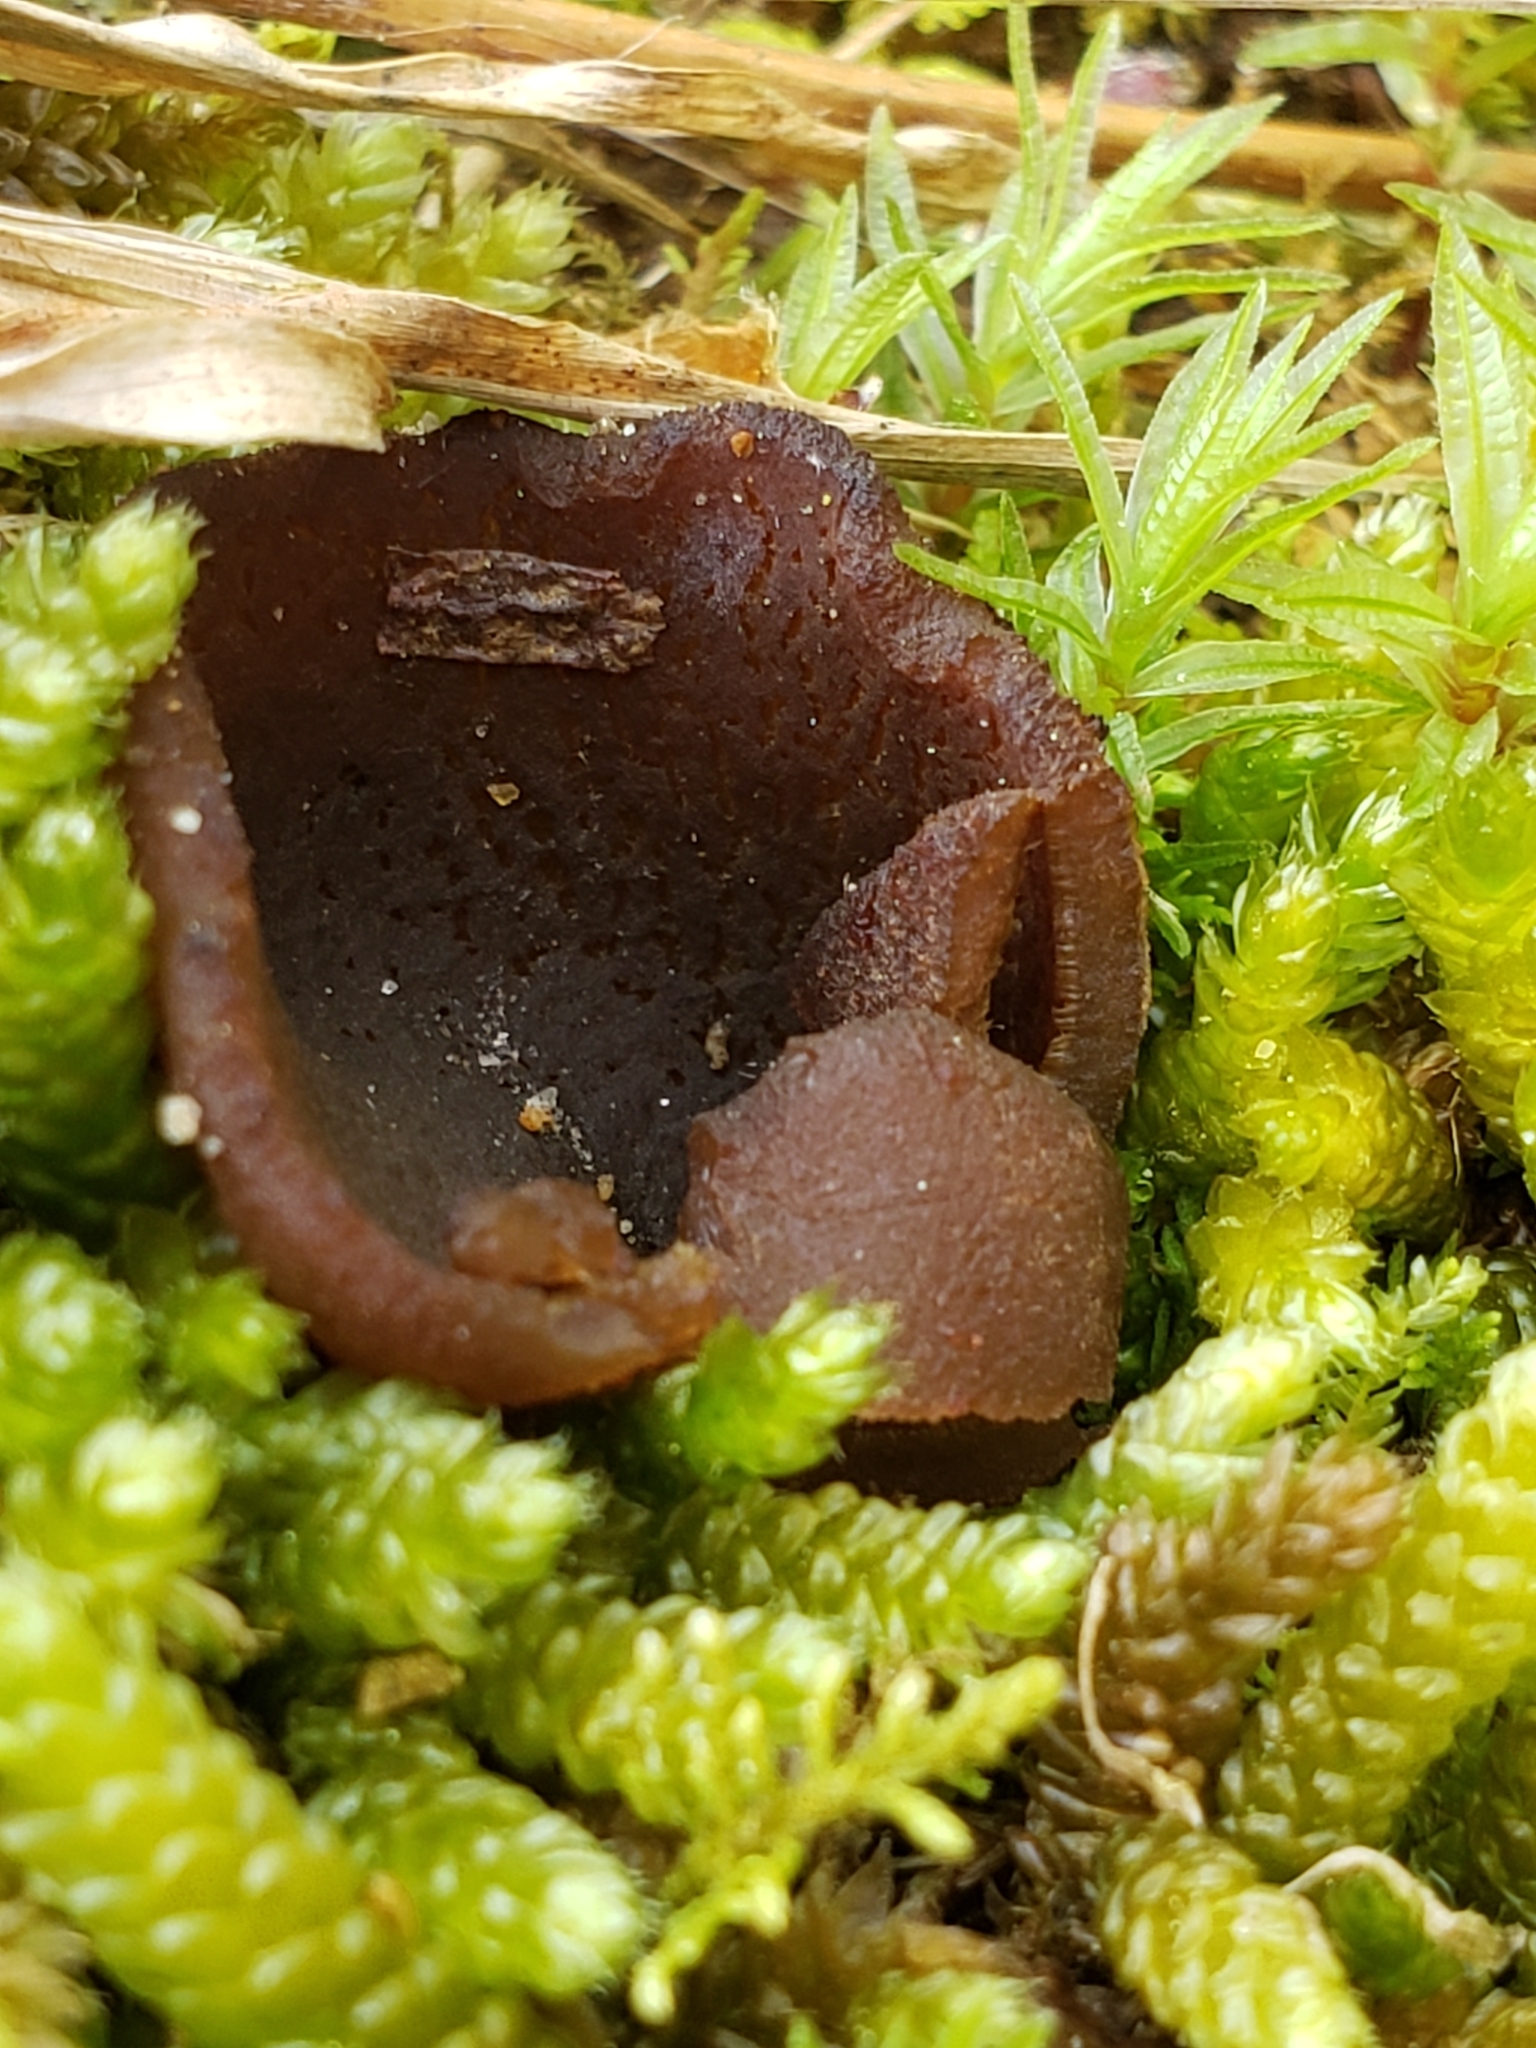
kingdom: Fungi
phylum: Ascomycota
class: Pezizomycetes
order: Pezizales
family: Pezizaceae
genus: Phylloscypha
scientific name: Phylloscypha phyllogena
